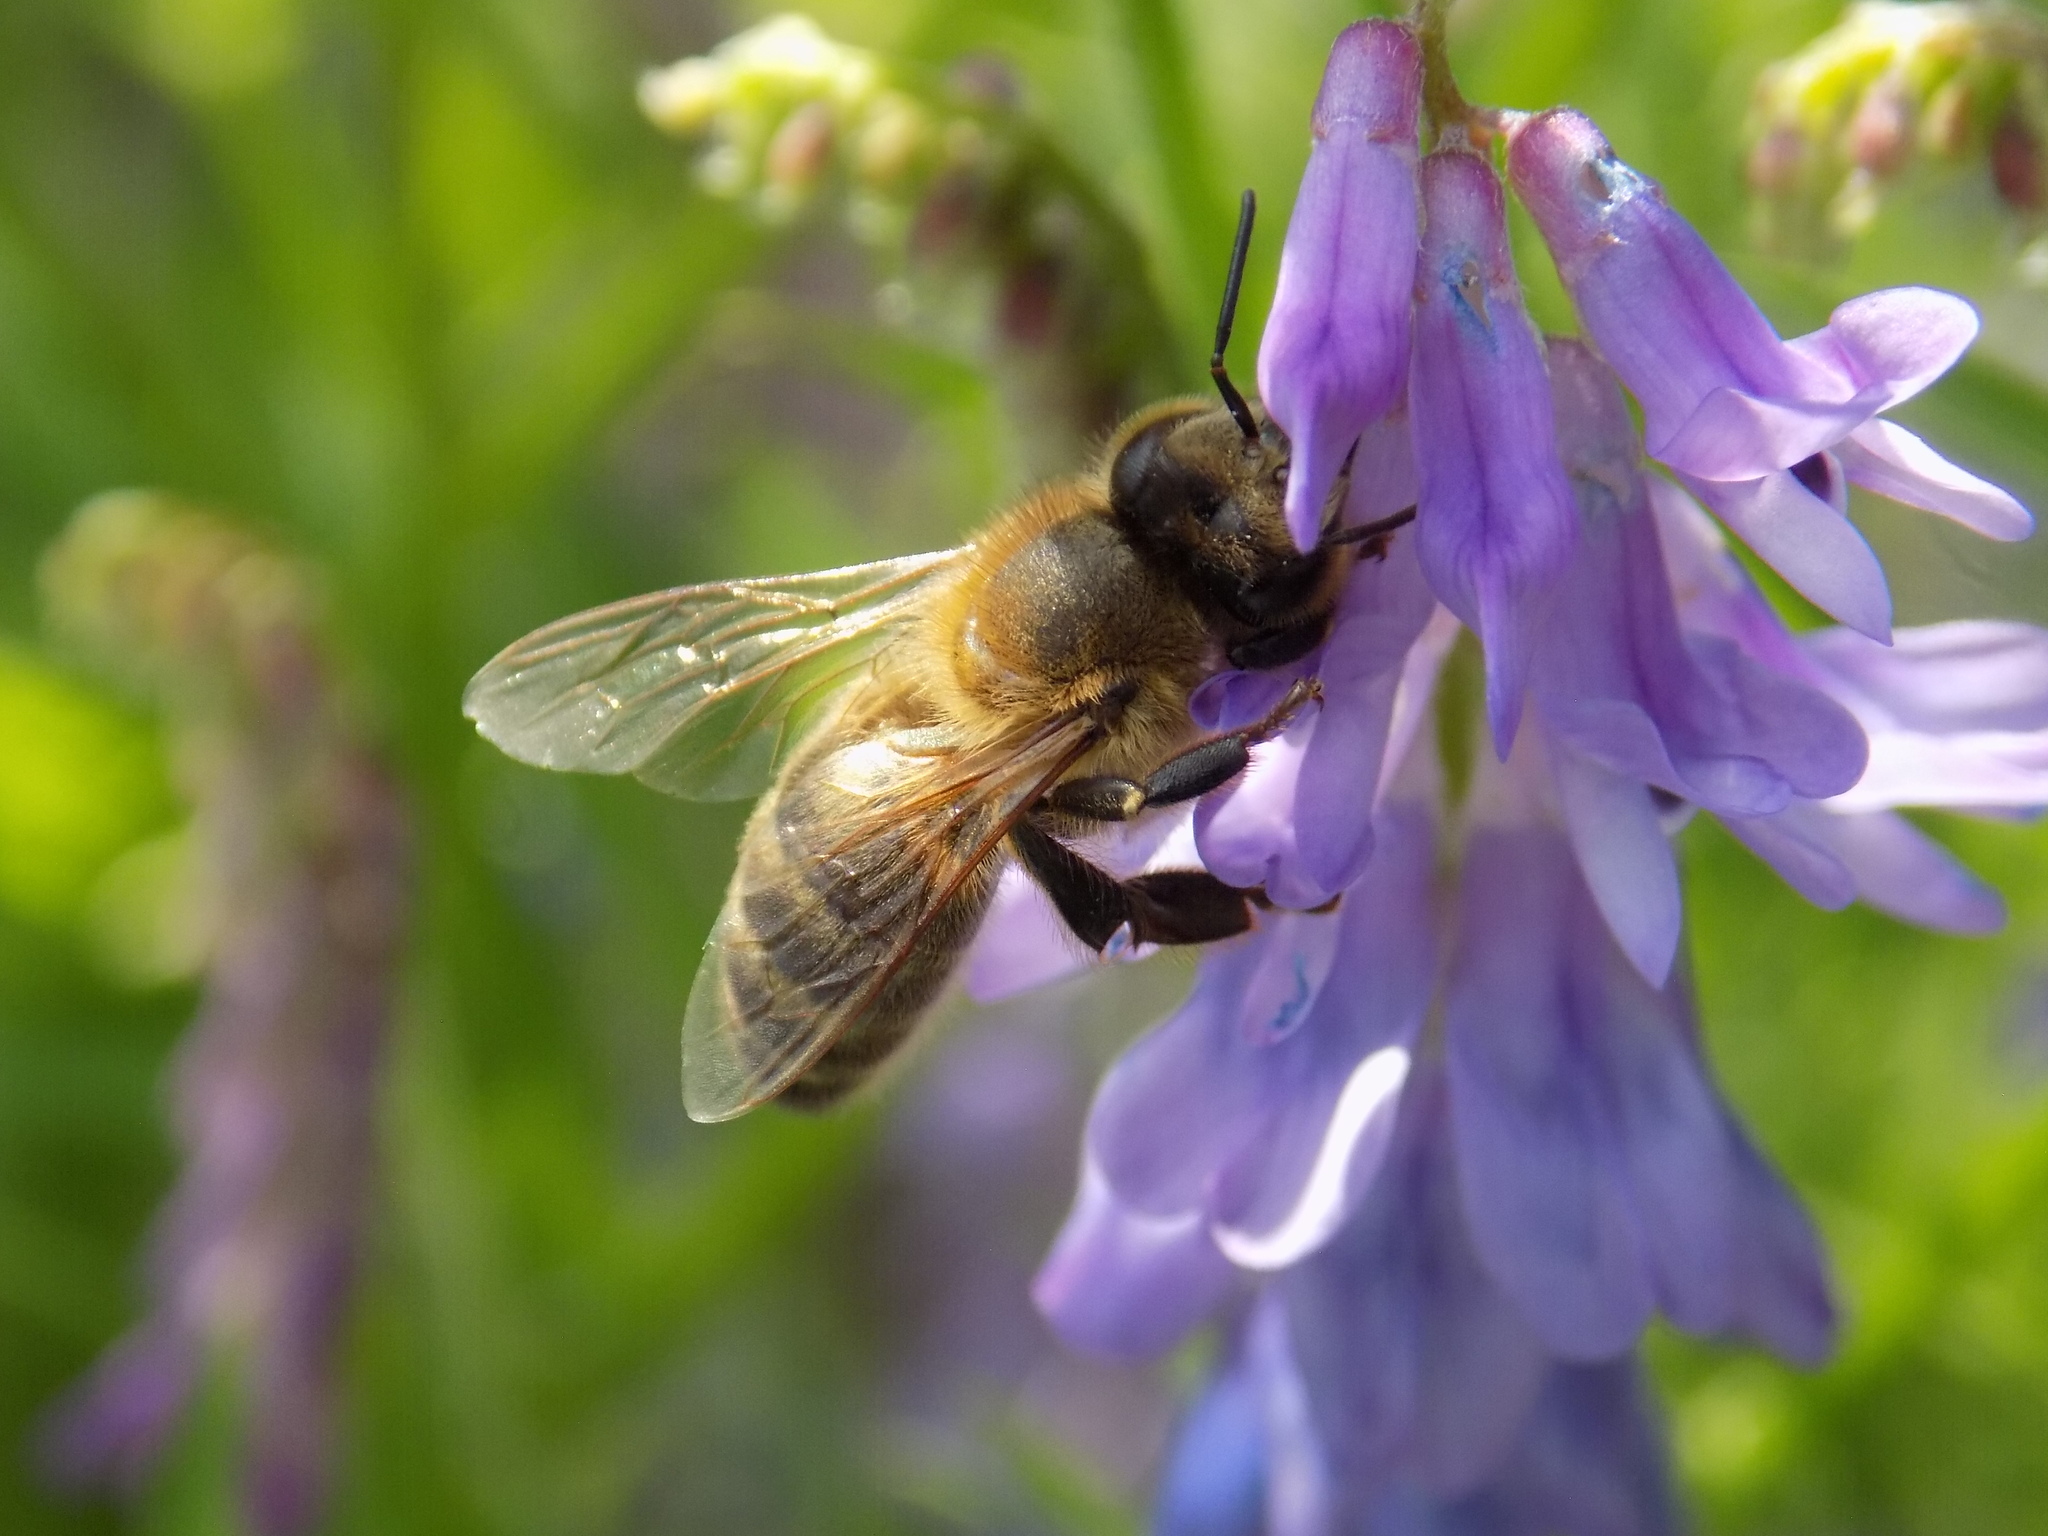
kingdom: Animalia
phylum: Arthropoda
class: Insecta
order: Hymenoptera
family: Apidae
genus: Apis
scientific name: Apis mellifera
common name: Honey bee
